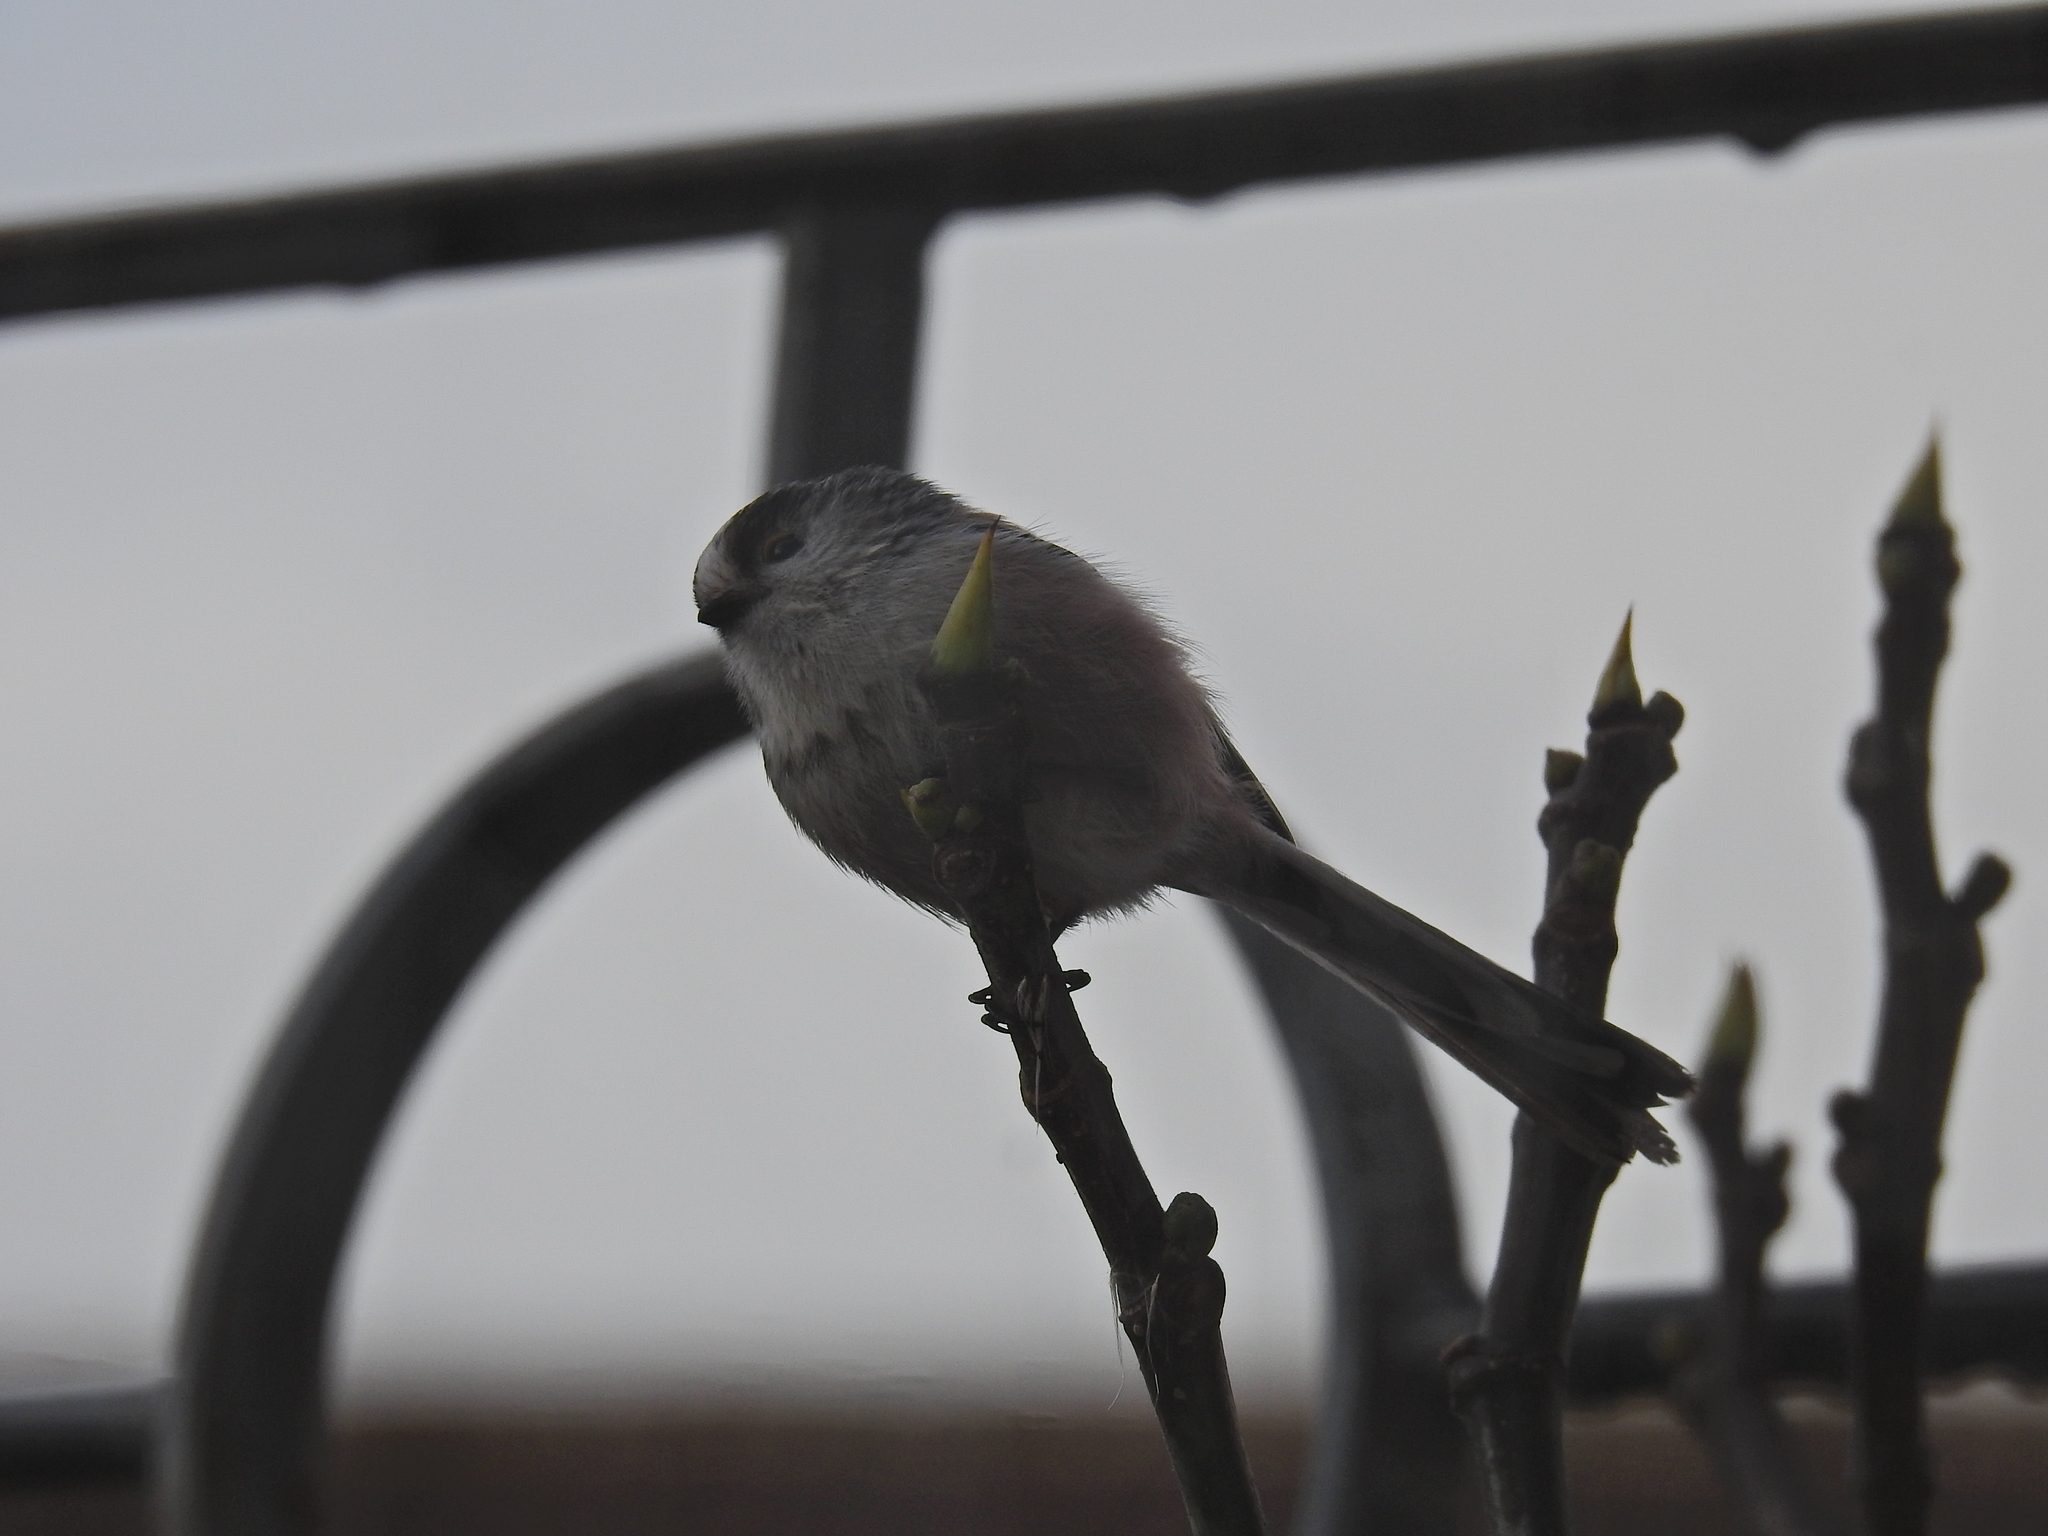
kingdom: Animalia
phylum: Chordata
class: Aves
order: Passeriformes
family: Aegithalidae
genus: Aegithalos
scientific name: Aegithalos caudatus
